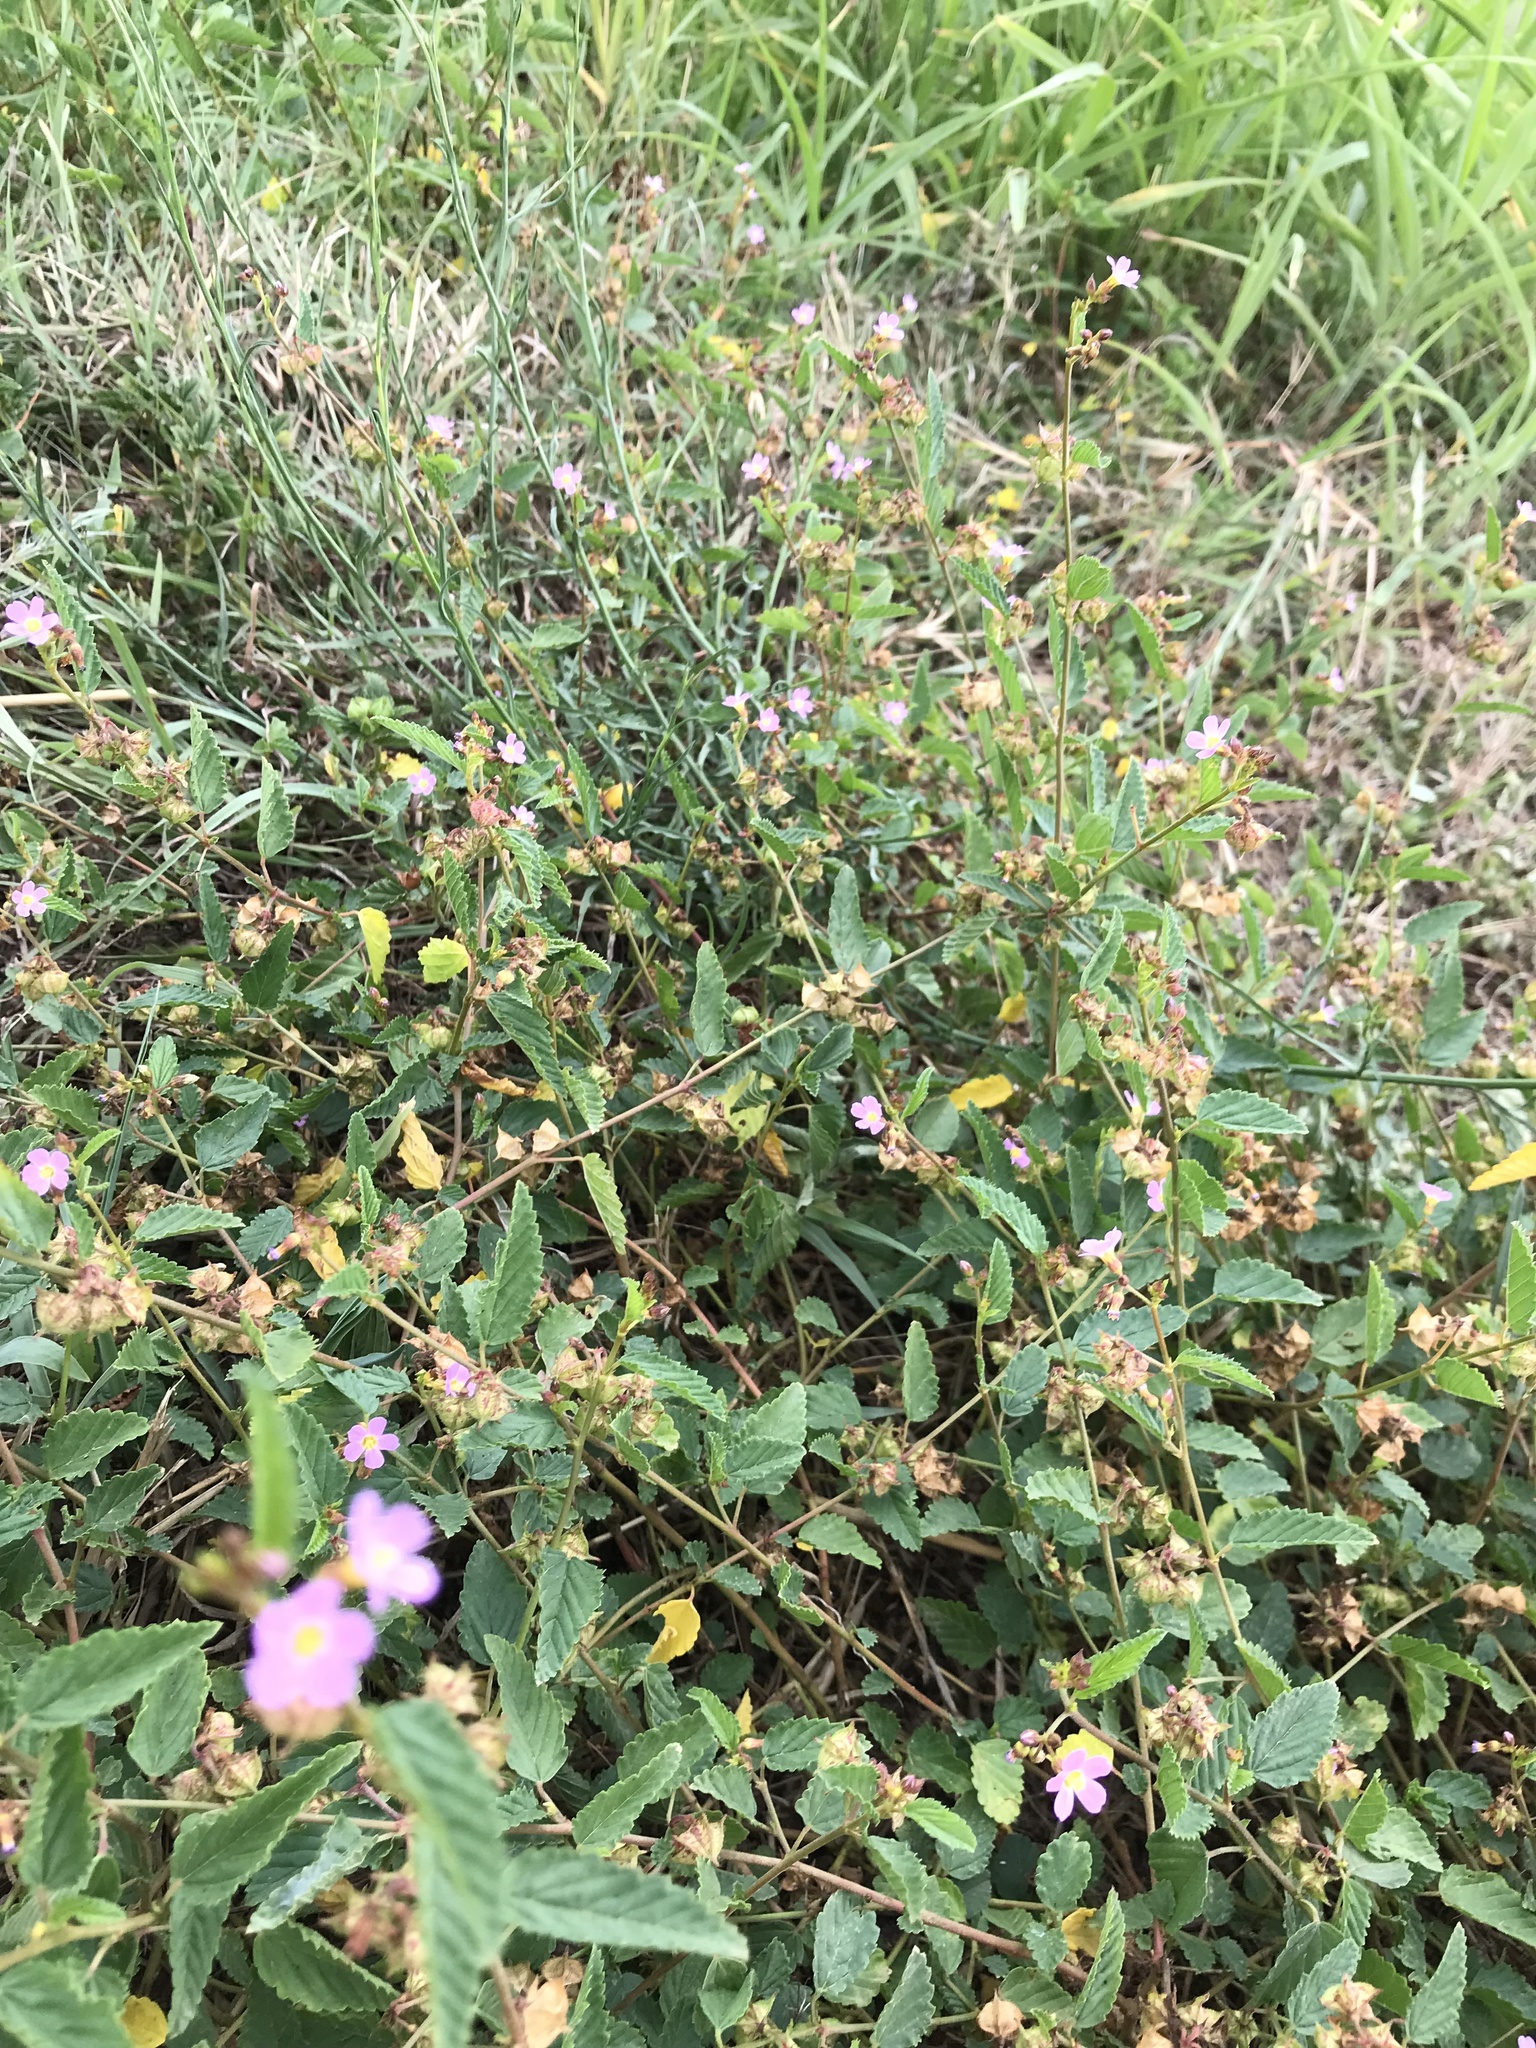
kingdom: Plantae
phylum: Tracheophyta
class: Magnoliopsida
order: Malvales
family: Malvaceae
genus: Melochia
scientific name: Melochia pyramidata
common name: Pyramidflower
